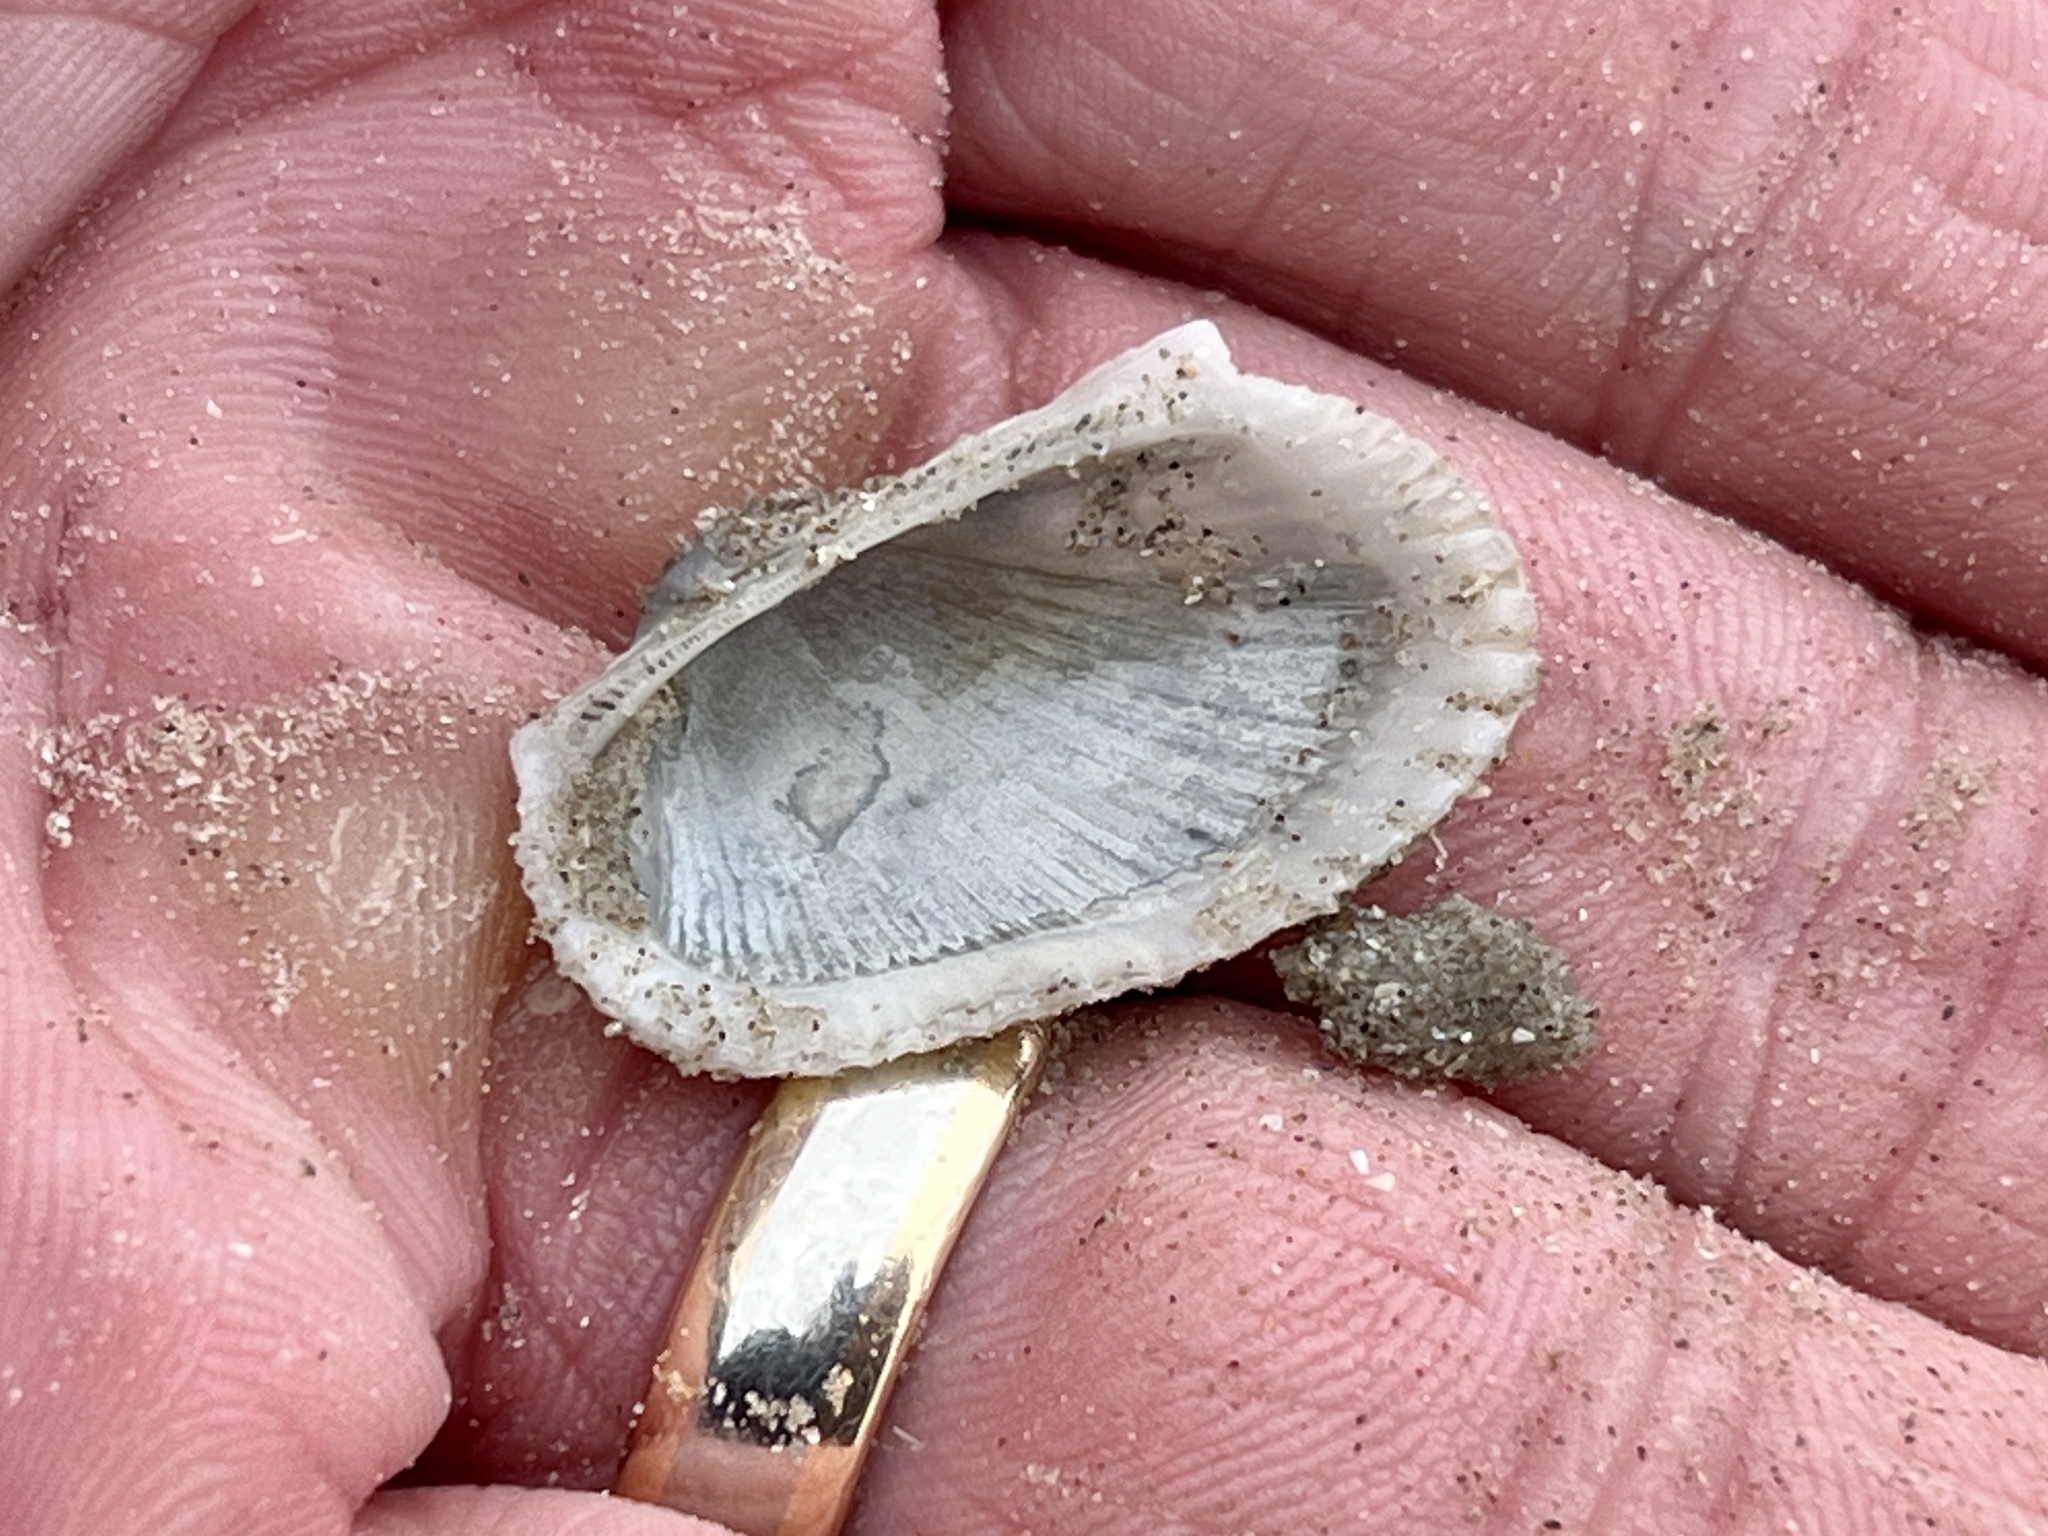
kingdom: Animalia
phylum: Mollusca
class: Bivalvia
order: Arcida
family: Arcidae
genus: Anadara
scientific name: Anadara transversa
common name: Transverse ark
